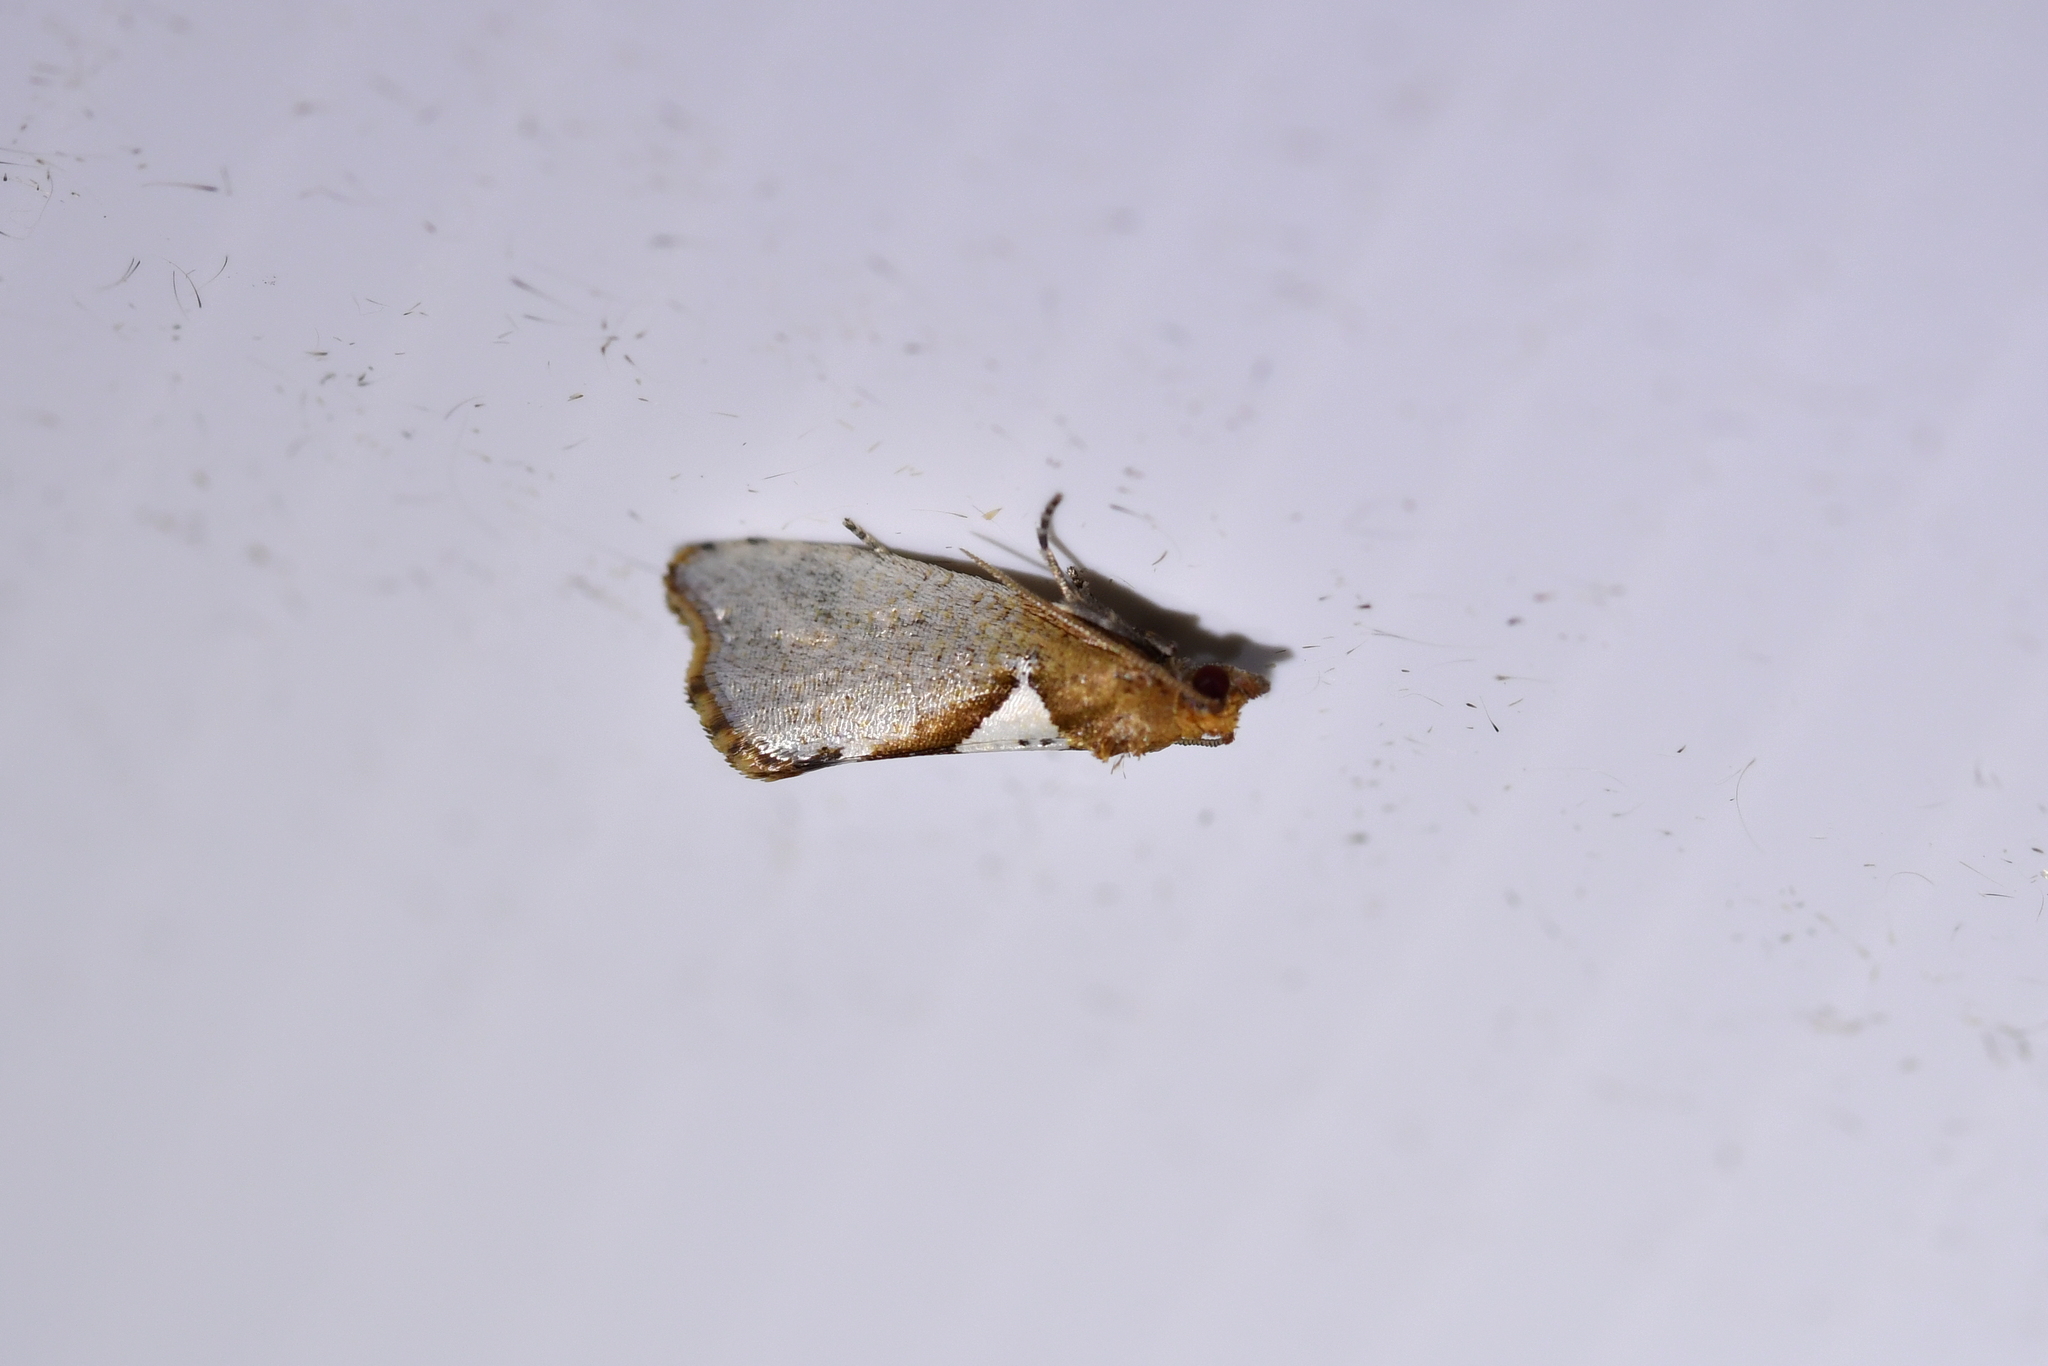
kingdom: Animalia
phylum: Arthropoda
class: Insecta
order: Lepidoptera
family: Tortricidae
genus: Pyrgotis
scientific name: Pyrgotis pyramidias
